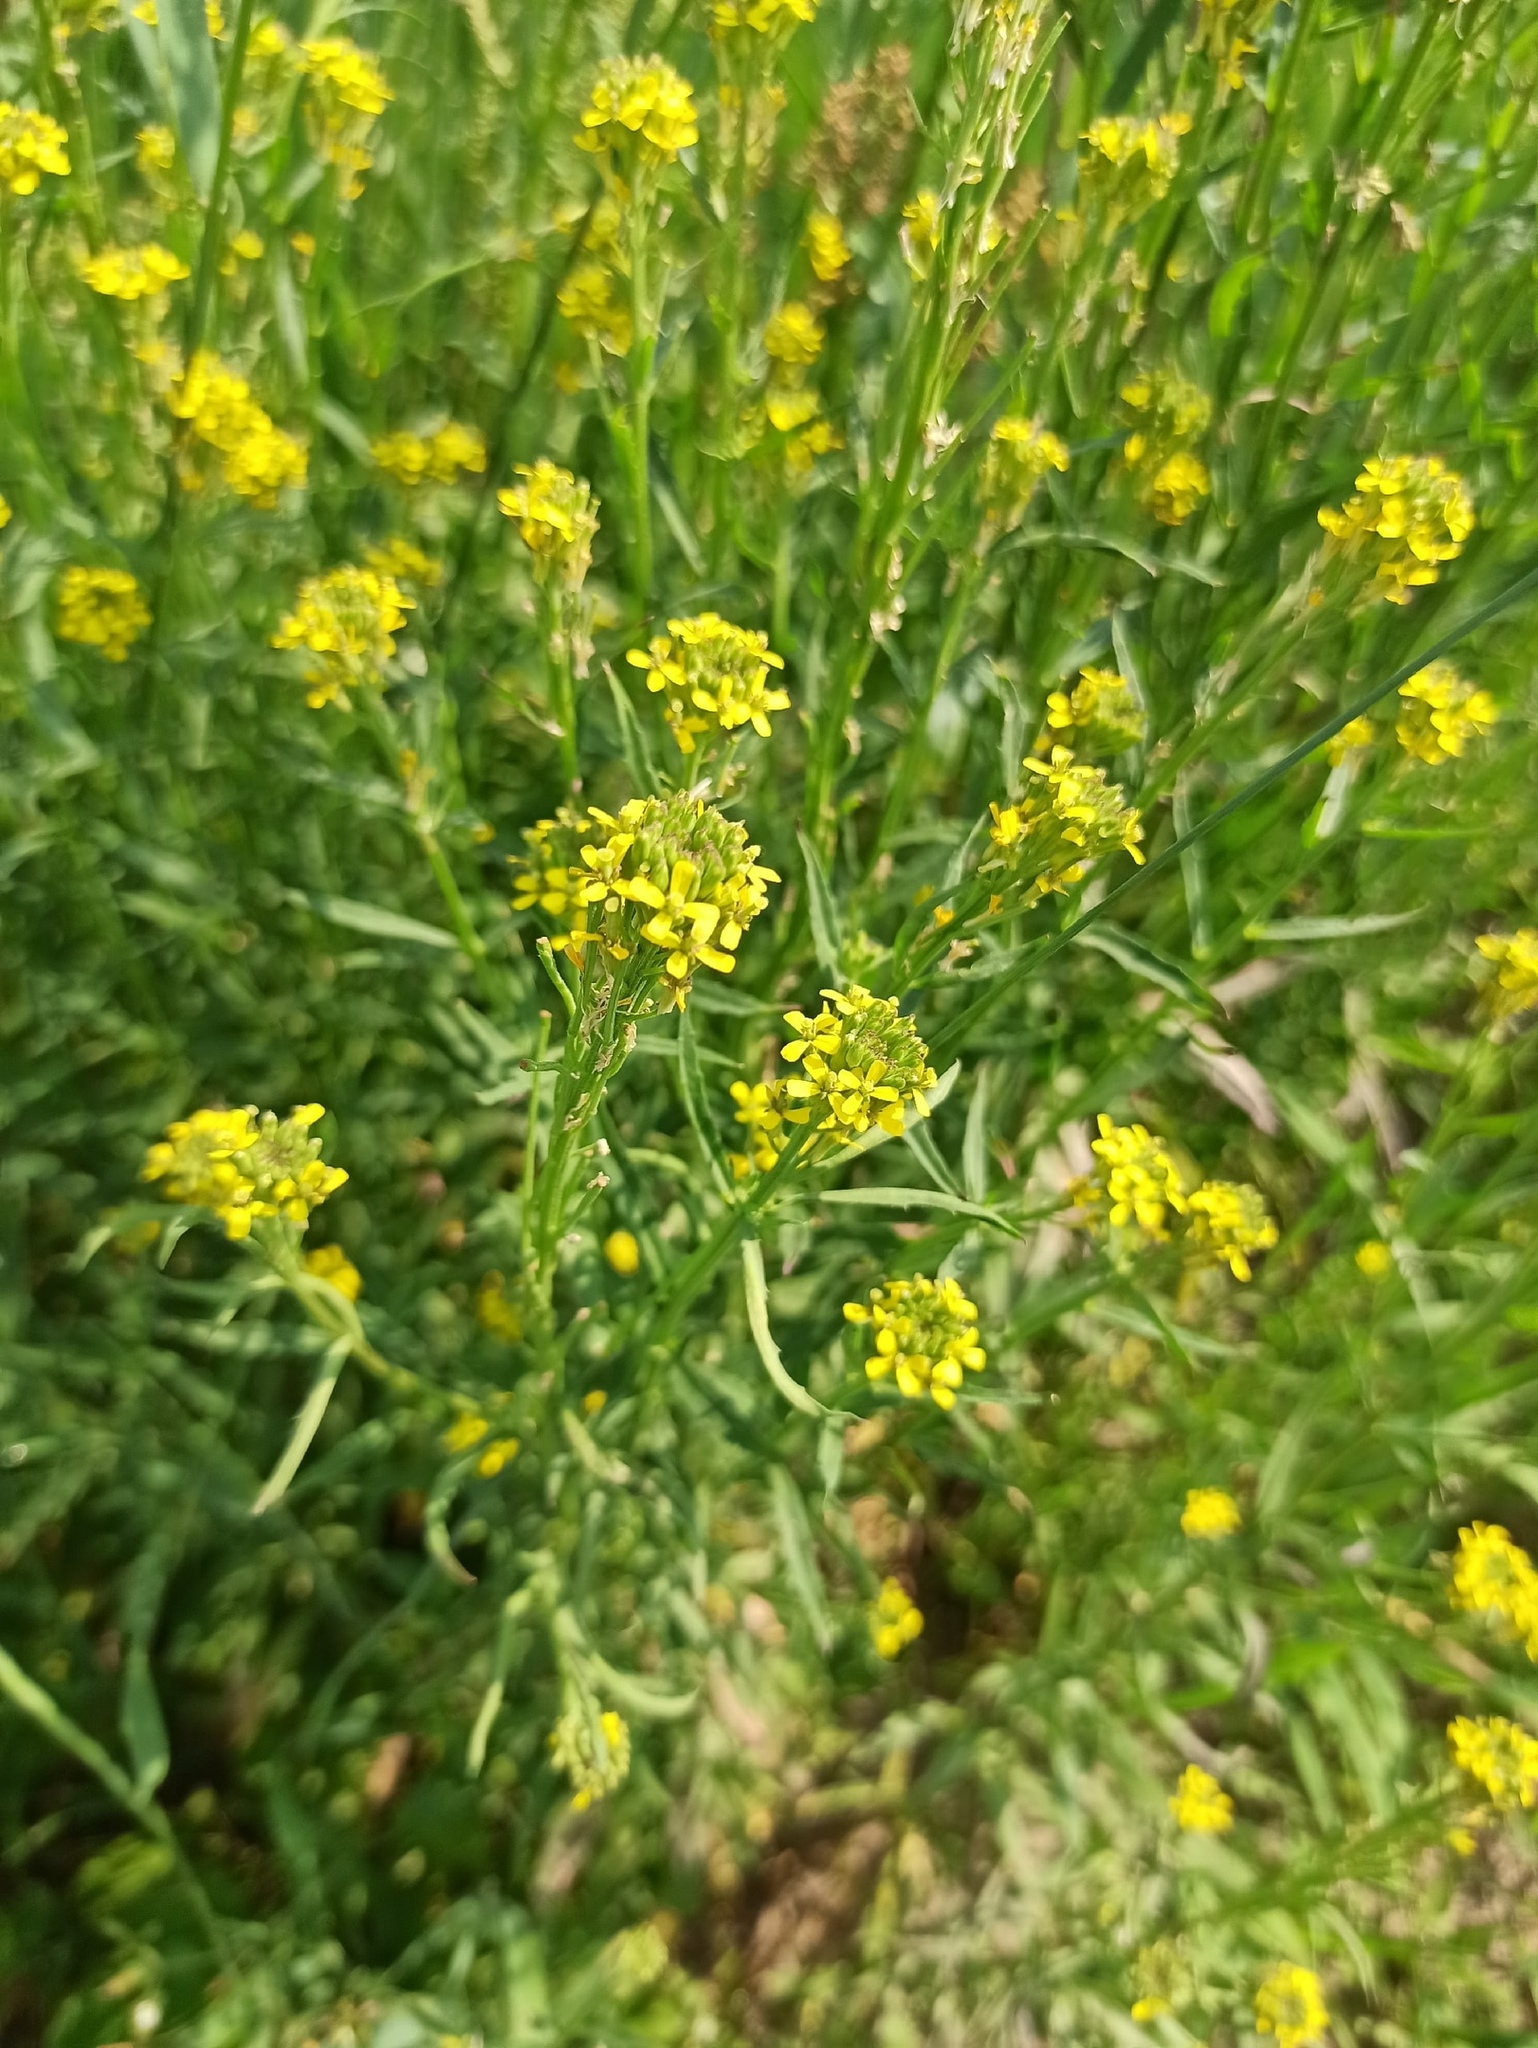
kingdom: Plantae
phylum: Tracheophyta
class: Magnoliopsida
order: Brassicales
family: Brassicaceae
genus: Erysimum
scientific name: Erysimum hieraciifolium
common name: European wallflower
